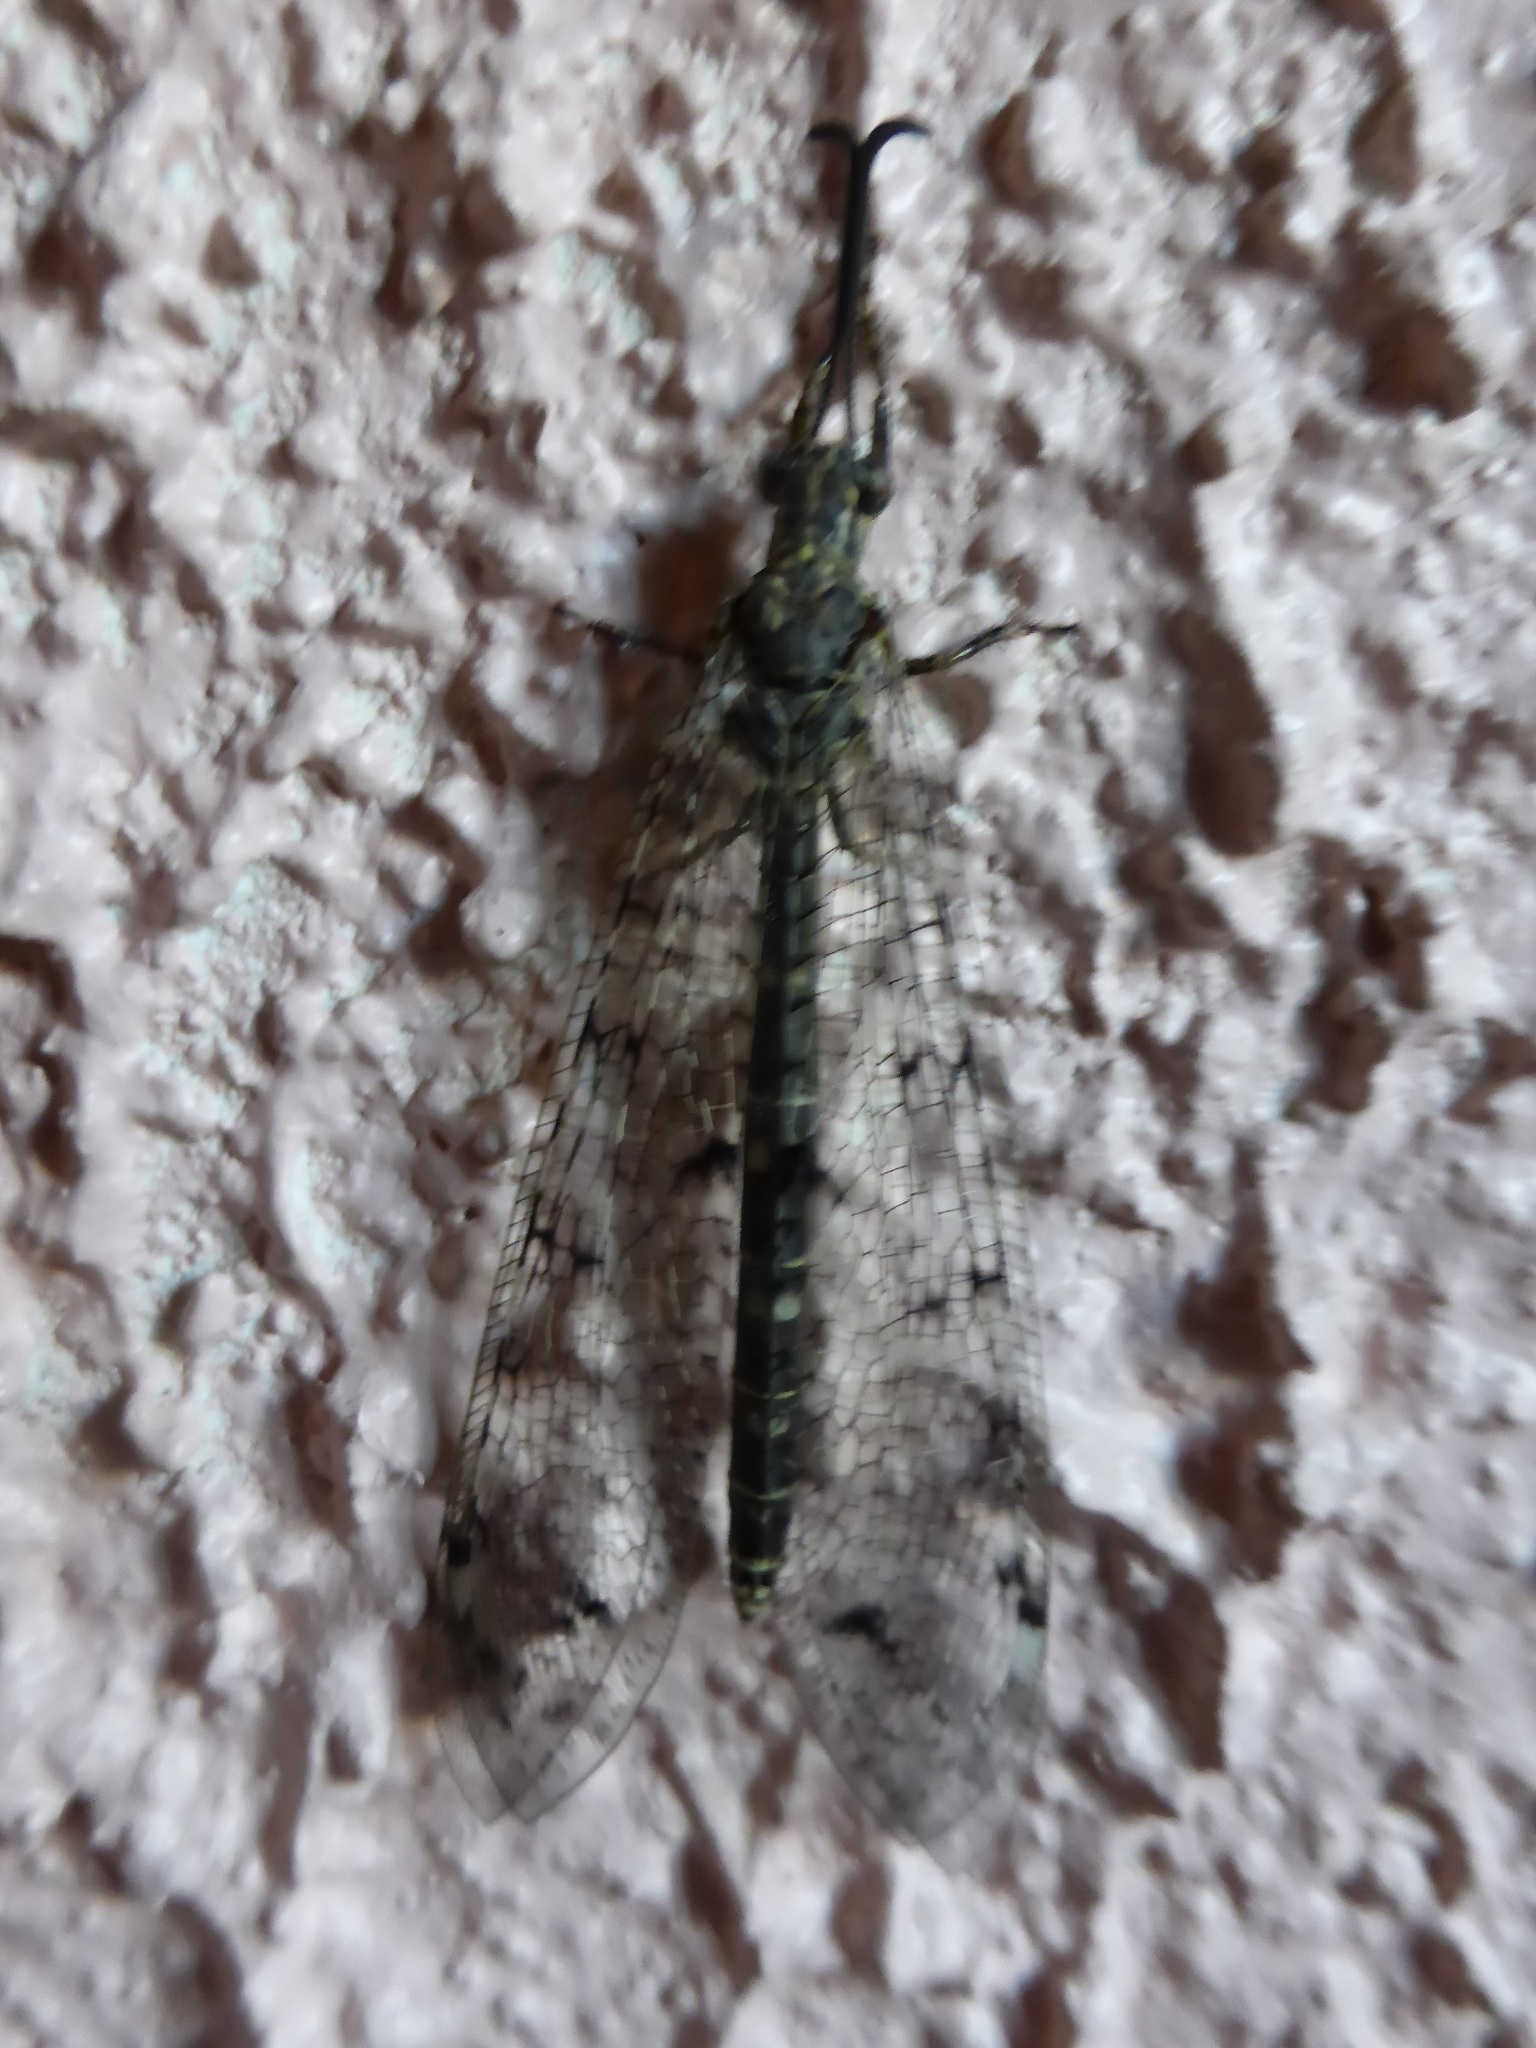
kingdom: Animalia
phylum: Arthropoda
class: Insecta
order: Neuroptera
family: Myrmeleontidae
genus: Distoleon
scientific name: Distoleon tetragrammicus
